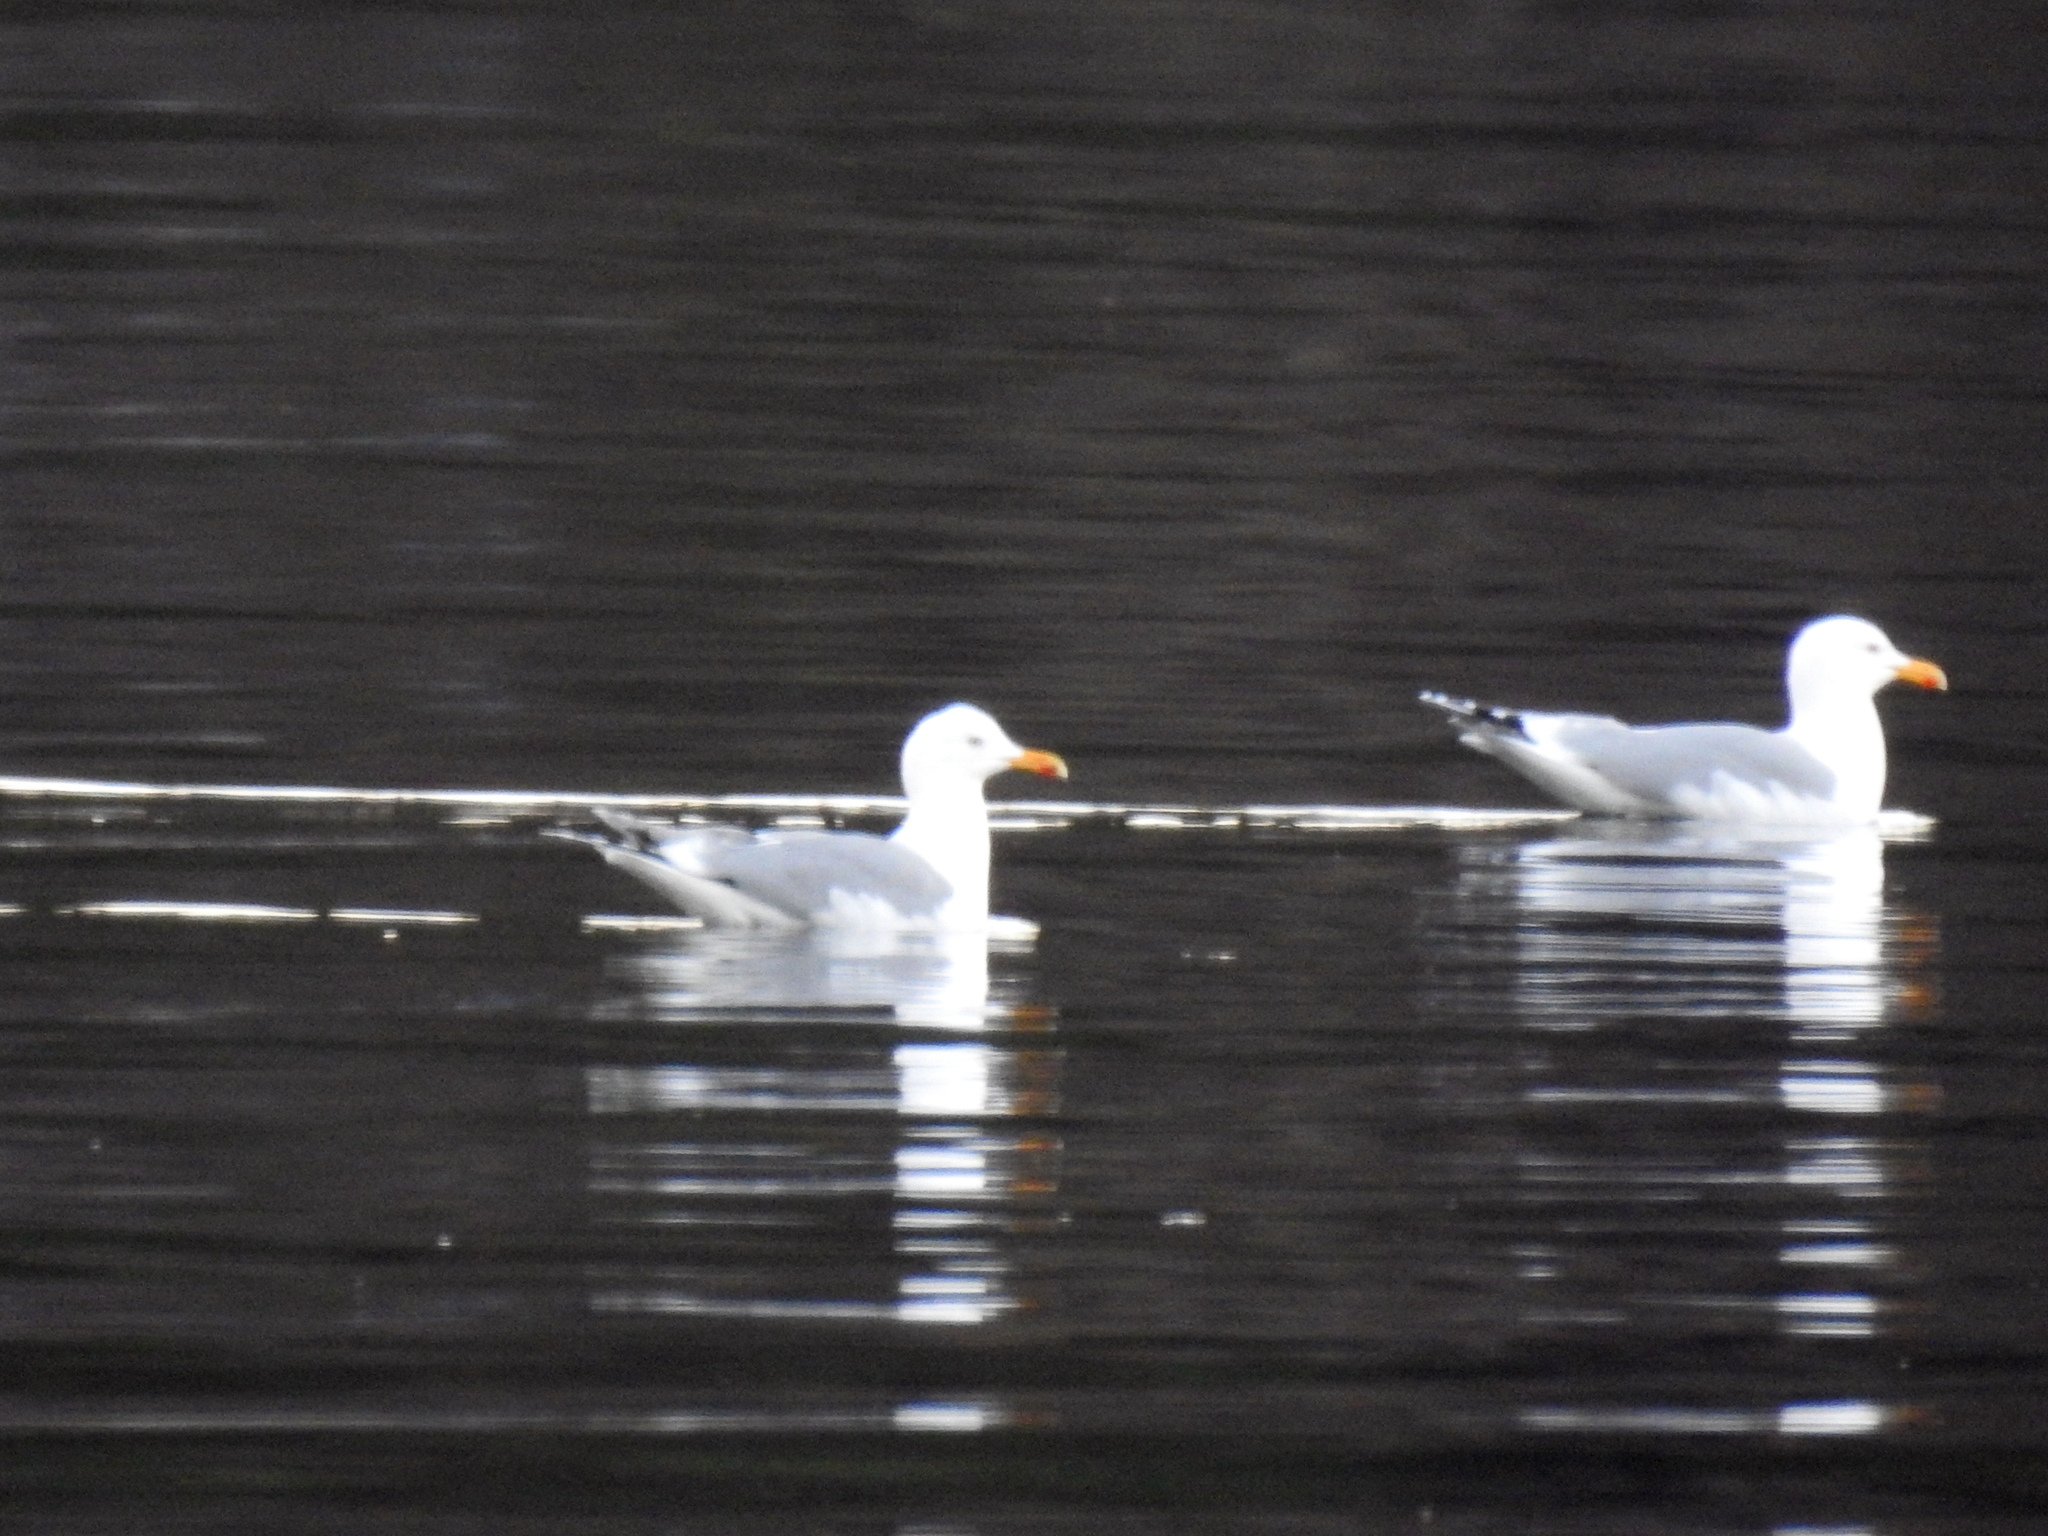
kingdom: Animalia
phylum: Chordata
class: Aves
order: Charadriiformes
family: Laridae
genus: Larus
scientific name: Larus argentatus
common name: Herring gull
